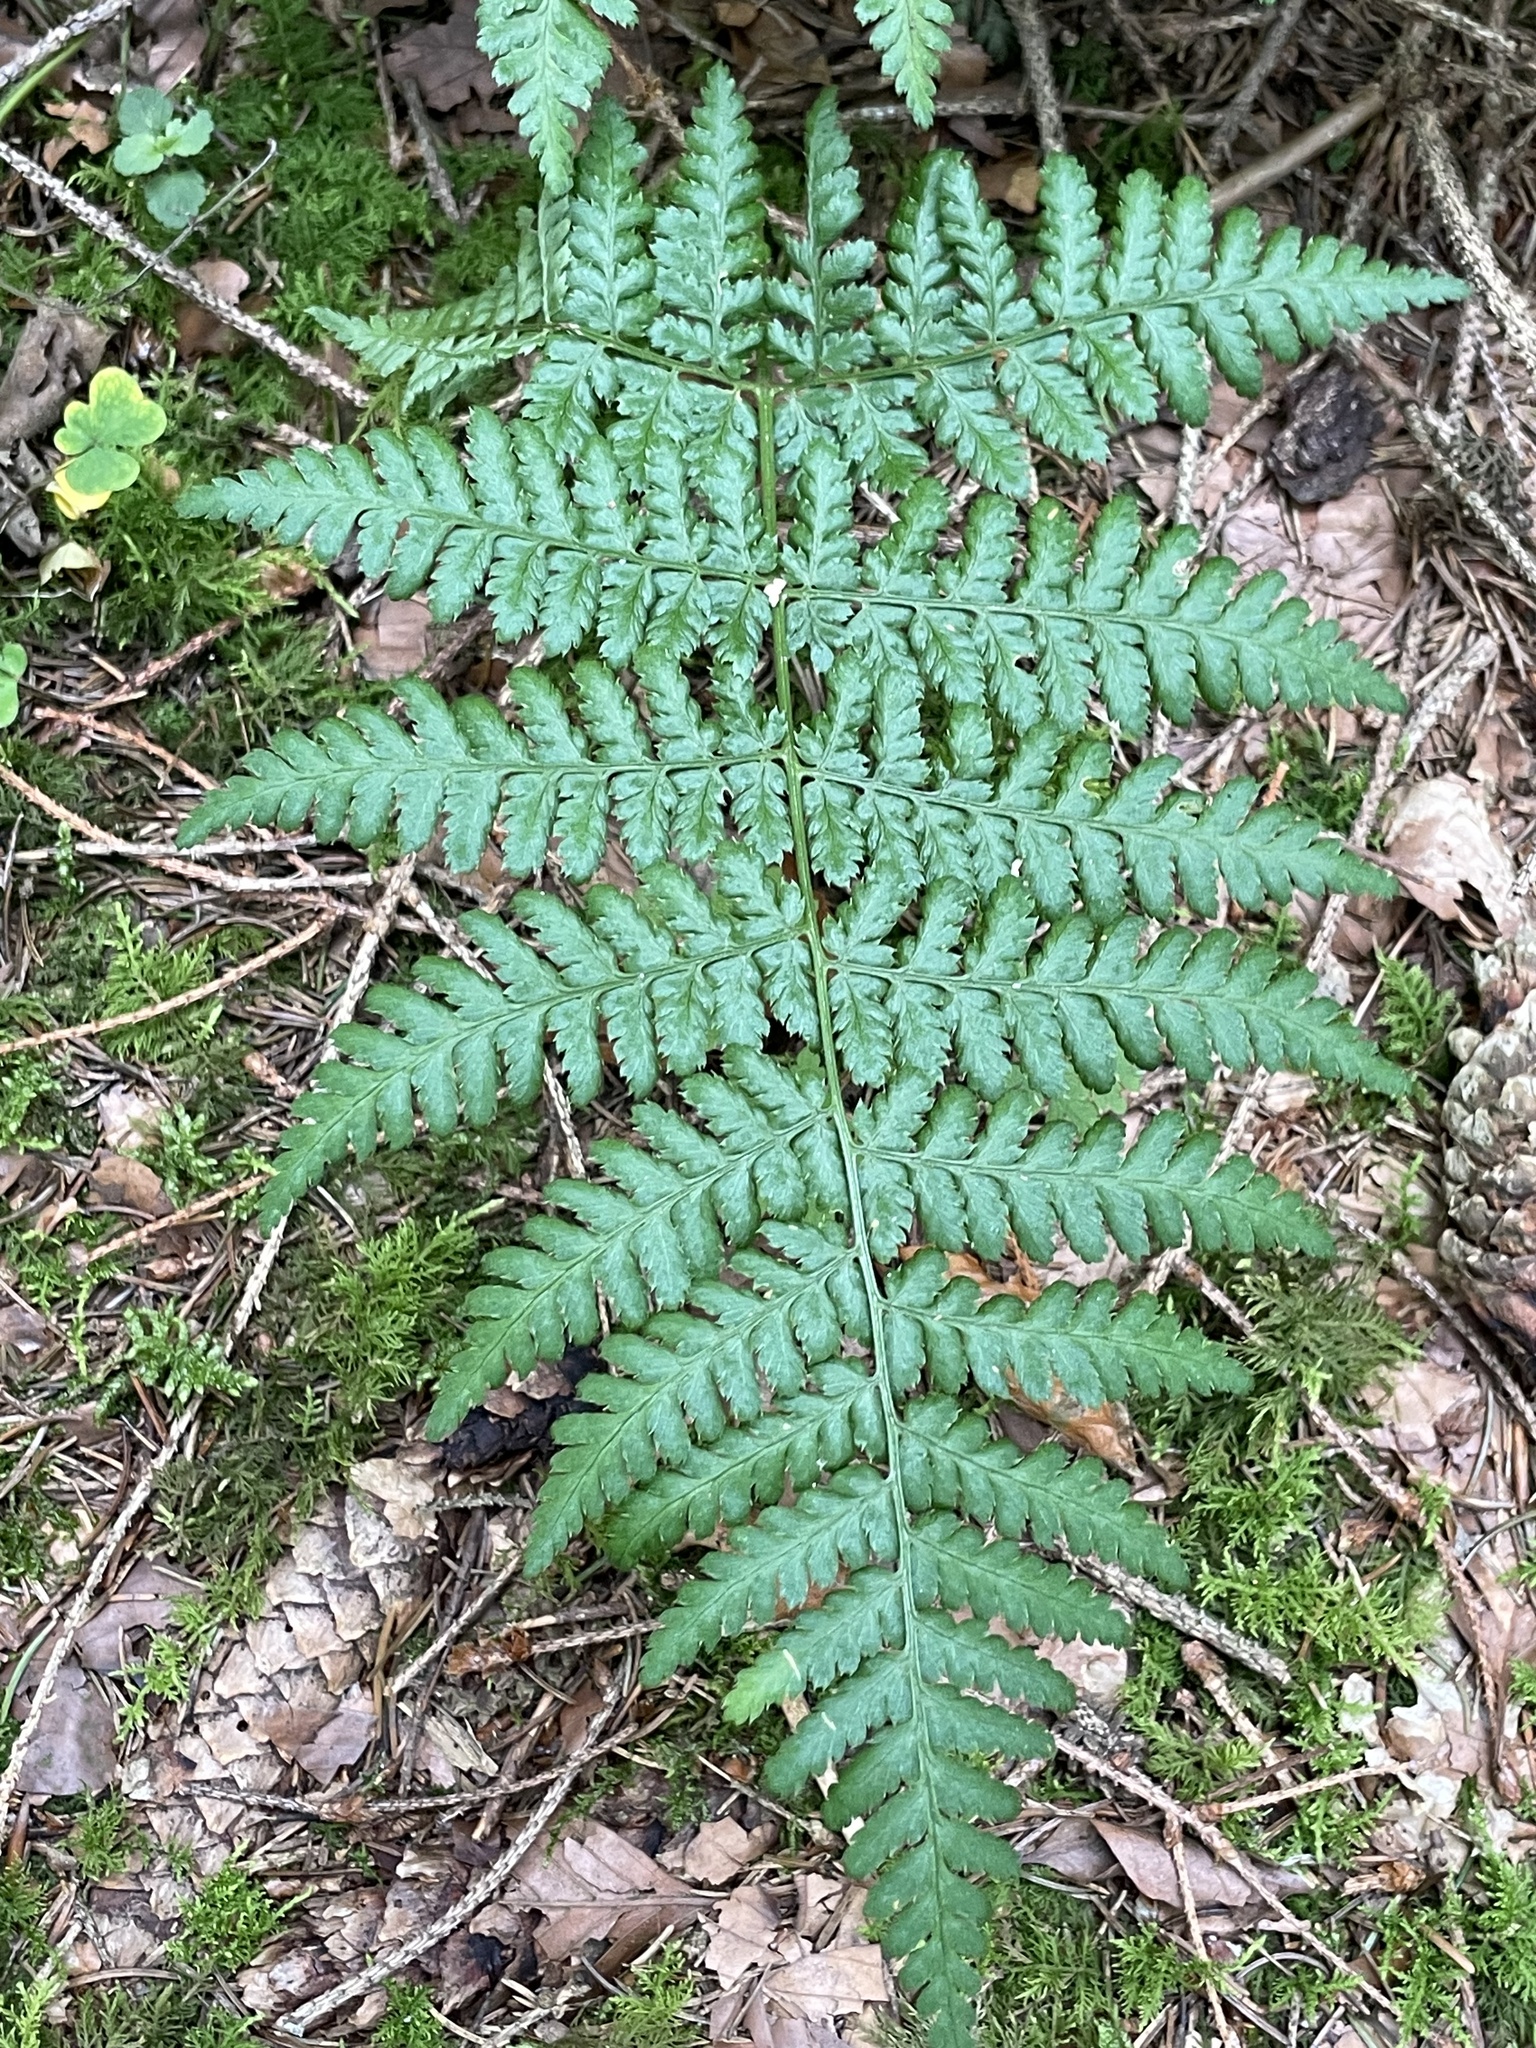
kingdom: Plantae
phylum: Tracheophyta
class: Polypodiopsida
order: Polypodiales
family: Dryopteridaceae
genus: Dryopteris
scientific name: Dryopteris dilatata
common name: Broad buckler-fern
